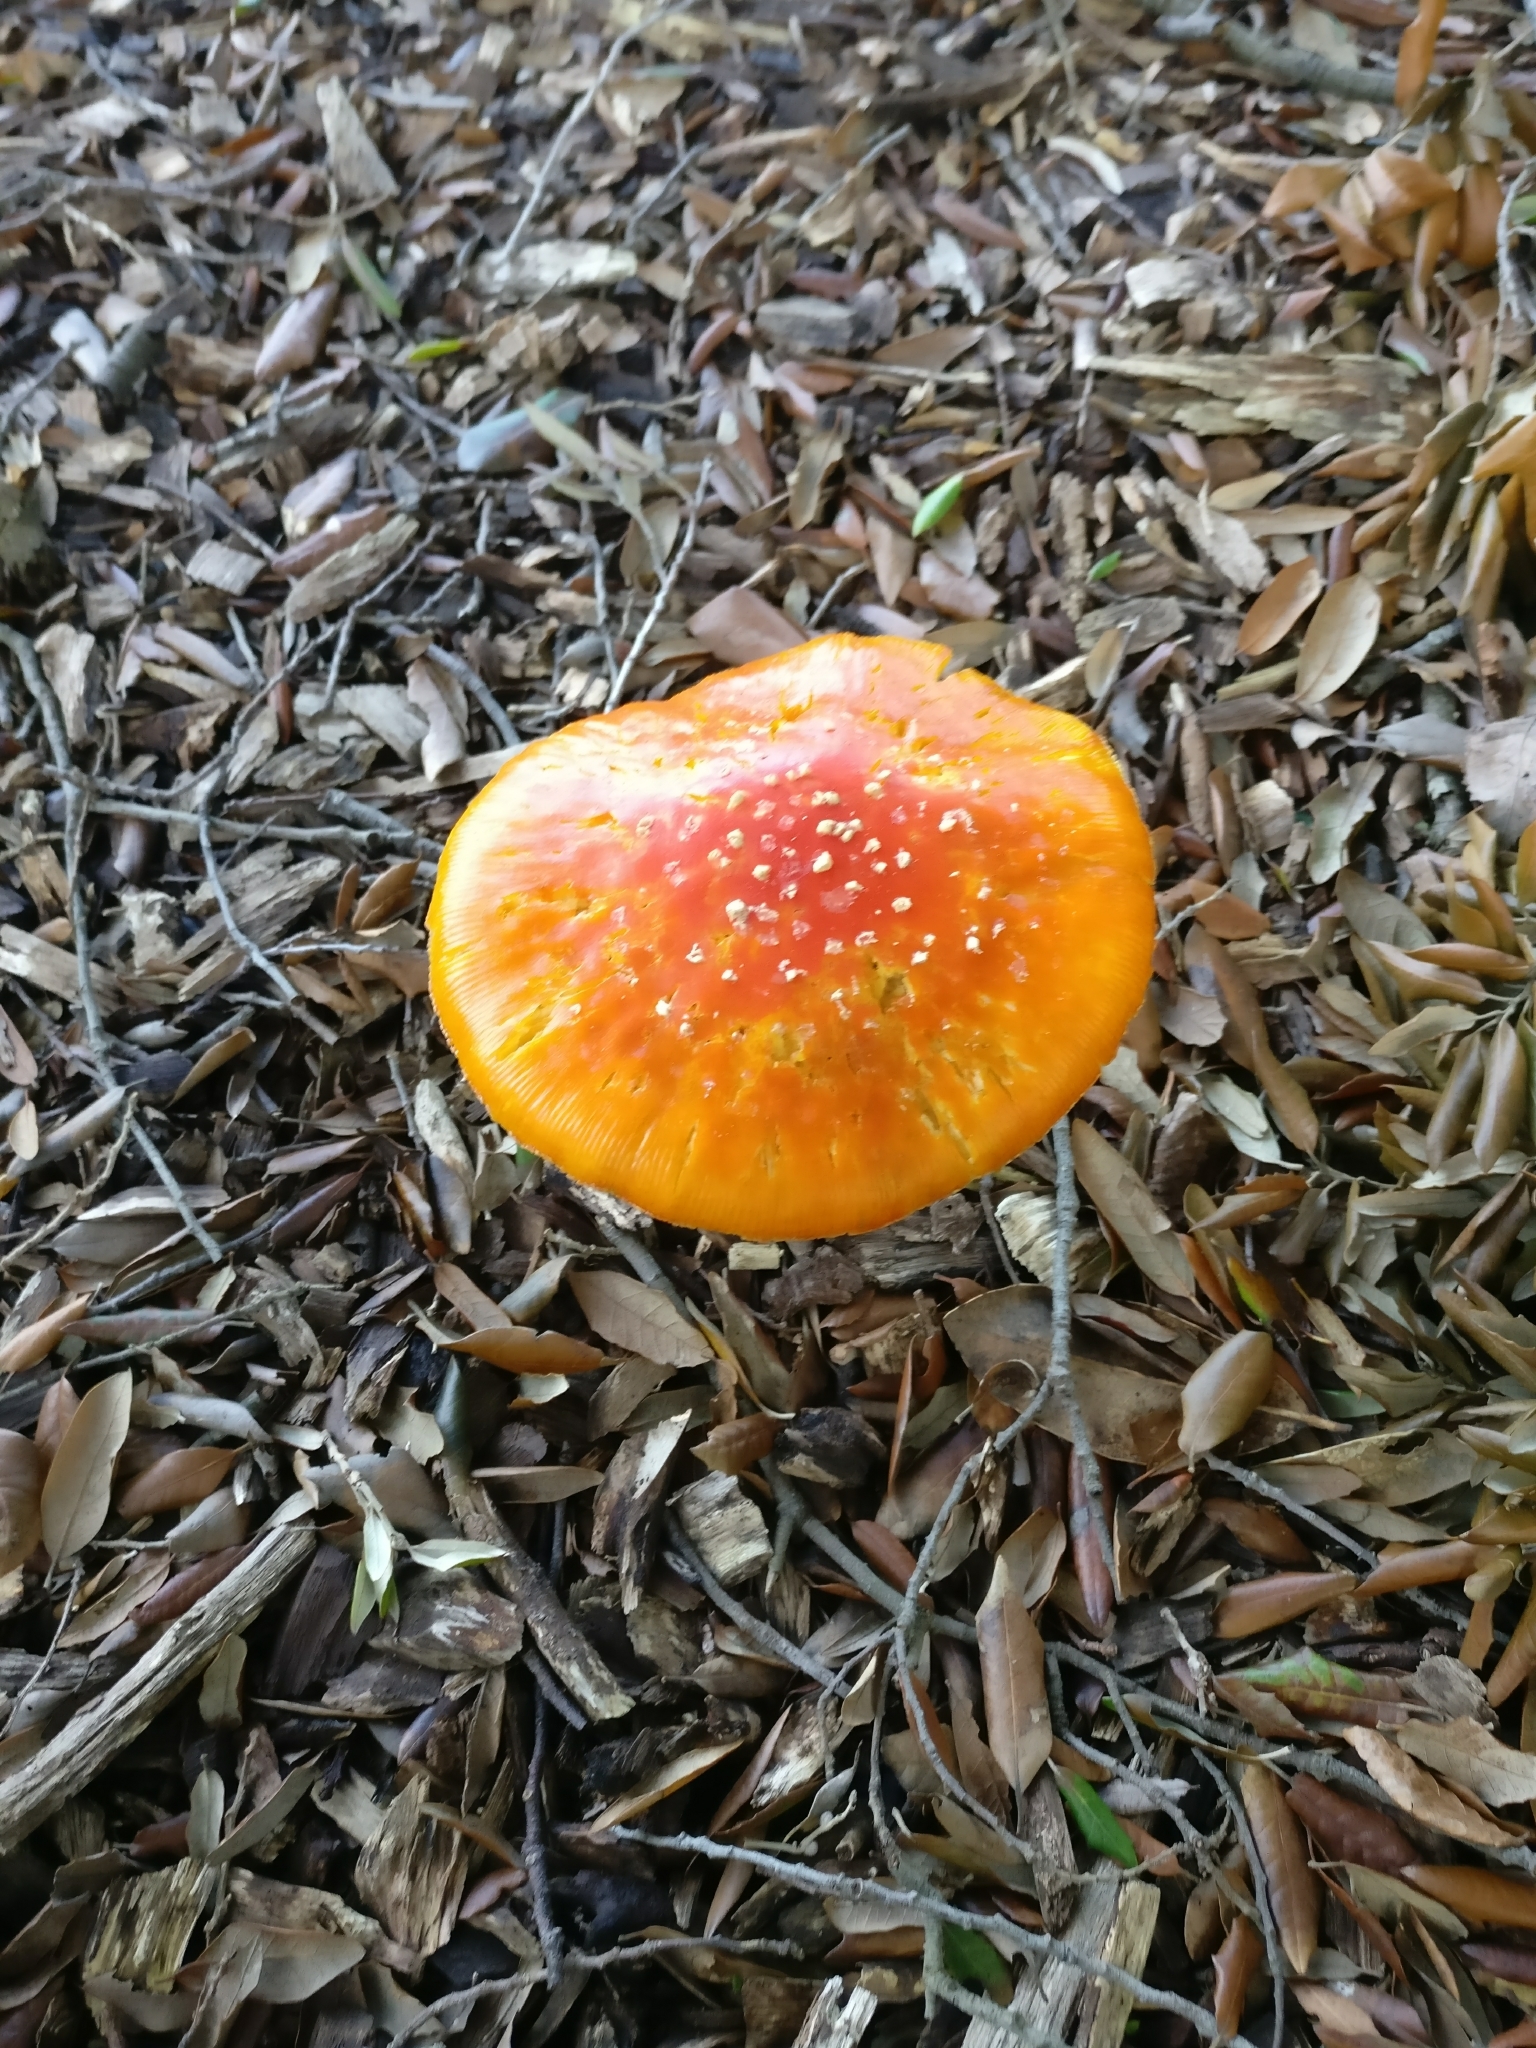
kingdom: Fungi
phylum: Basidiomycota
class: Agaricomycetes
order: Agaricales
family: Amanitaceae
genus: Amanita
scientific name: Amanita muscaria
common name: Fly agaric
